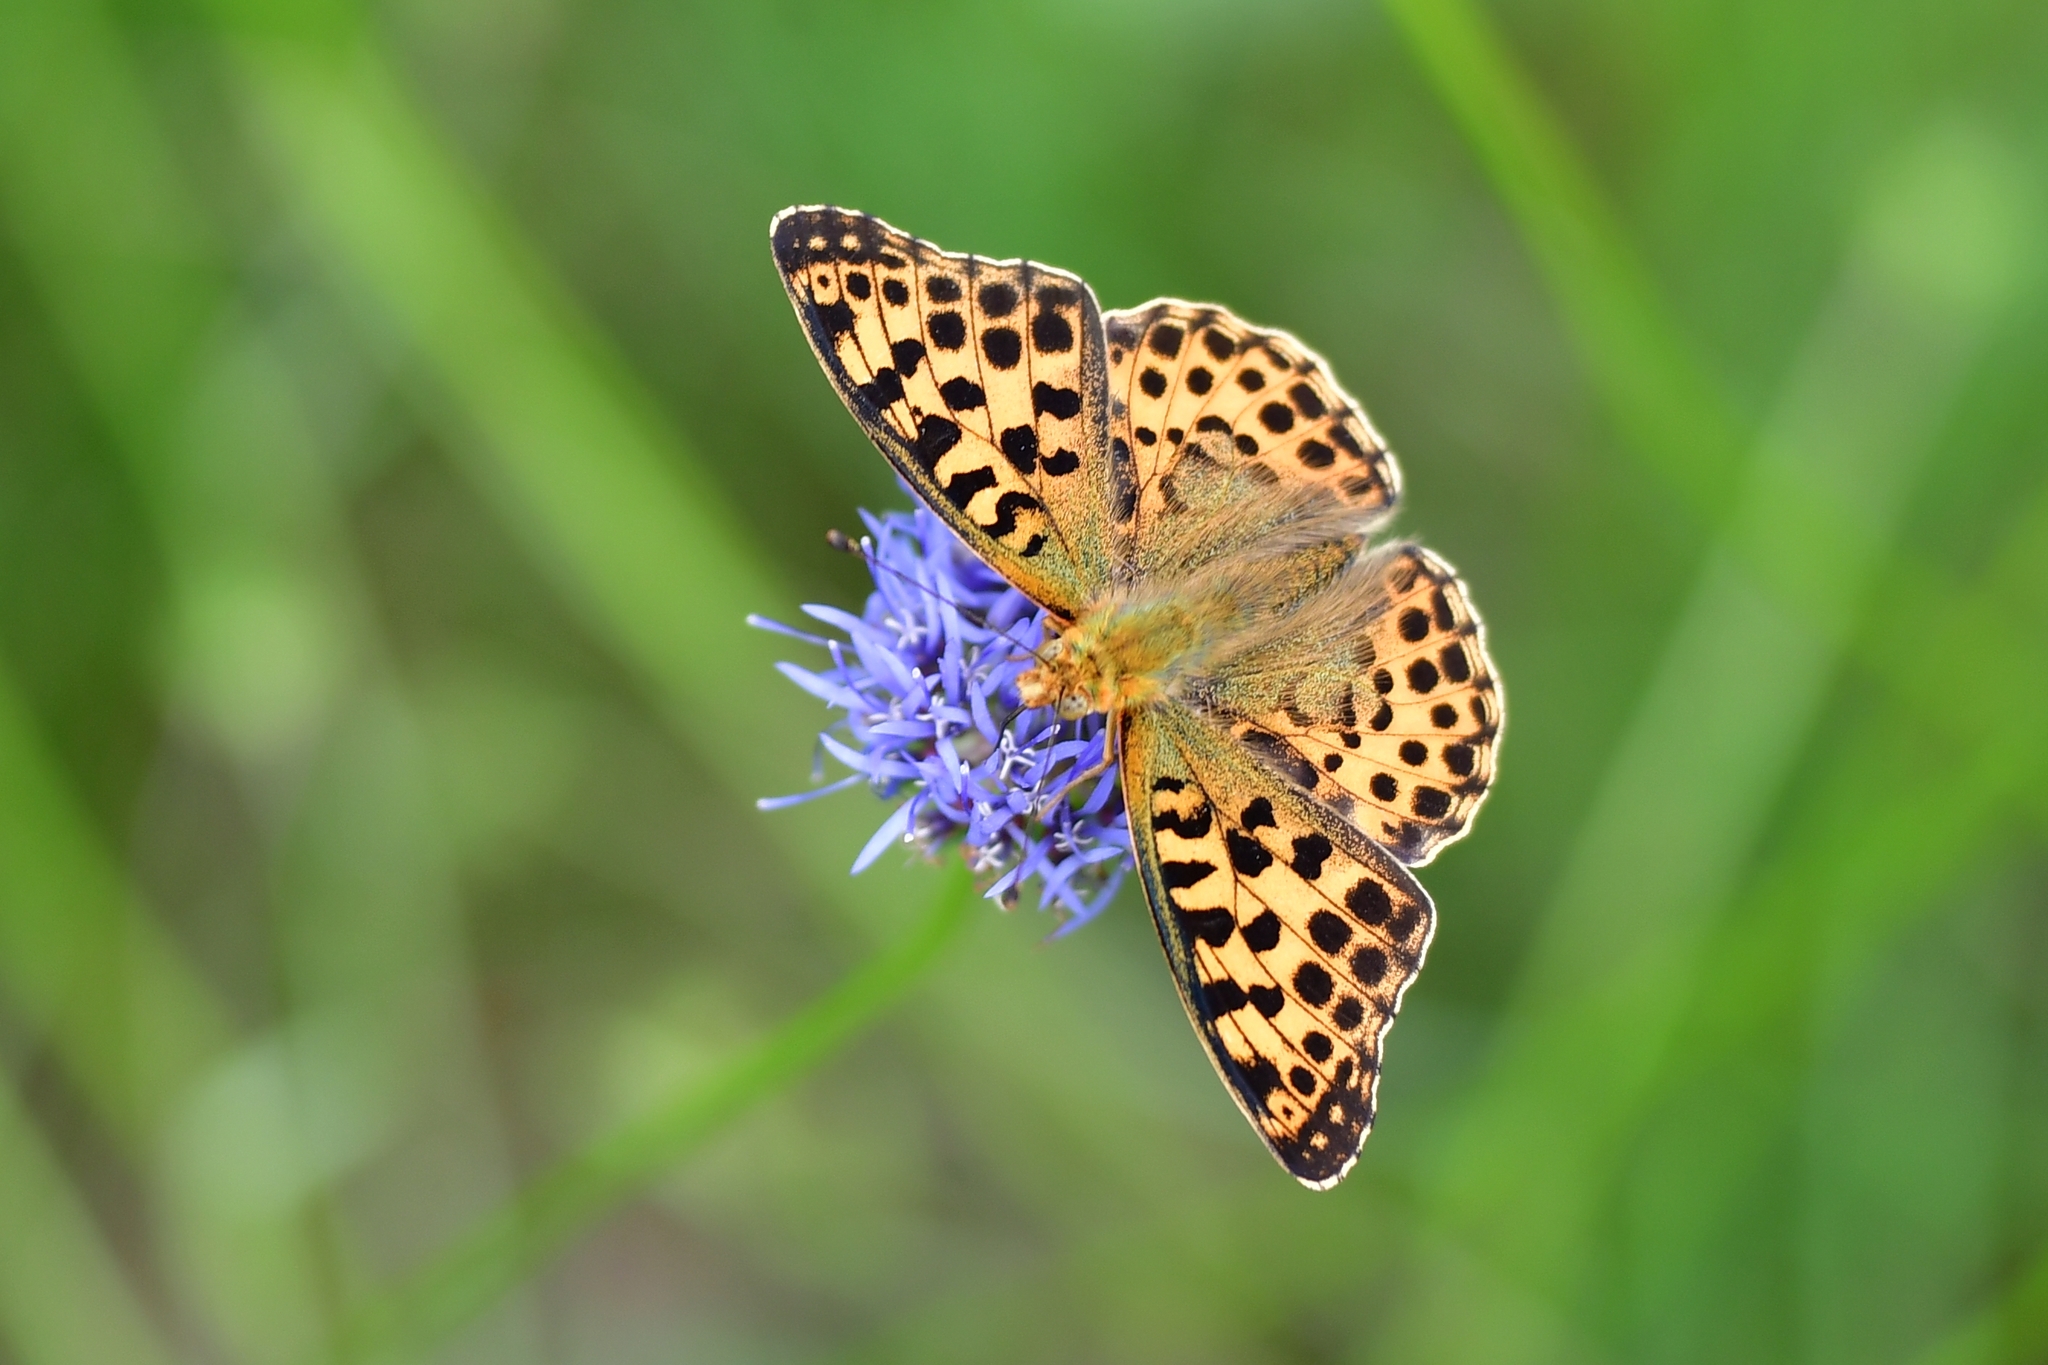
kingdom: Animalia
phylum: Arthropoda
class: Insecta
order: Lepidoptera
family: Nymphalidae
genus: Issoria
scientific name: Issoria lathonia
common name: Queen of spain fritillary
